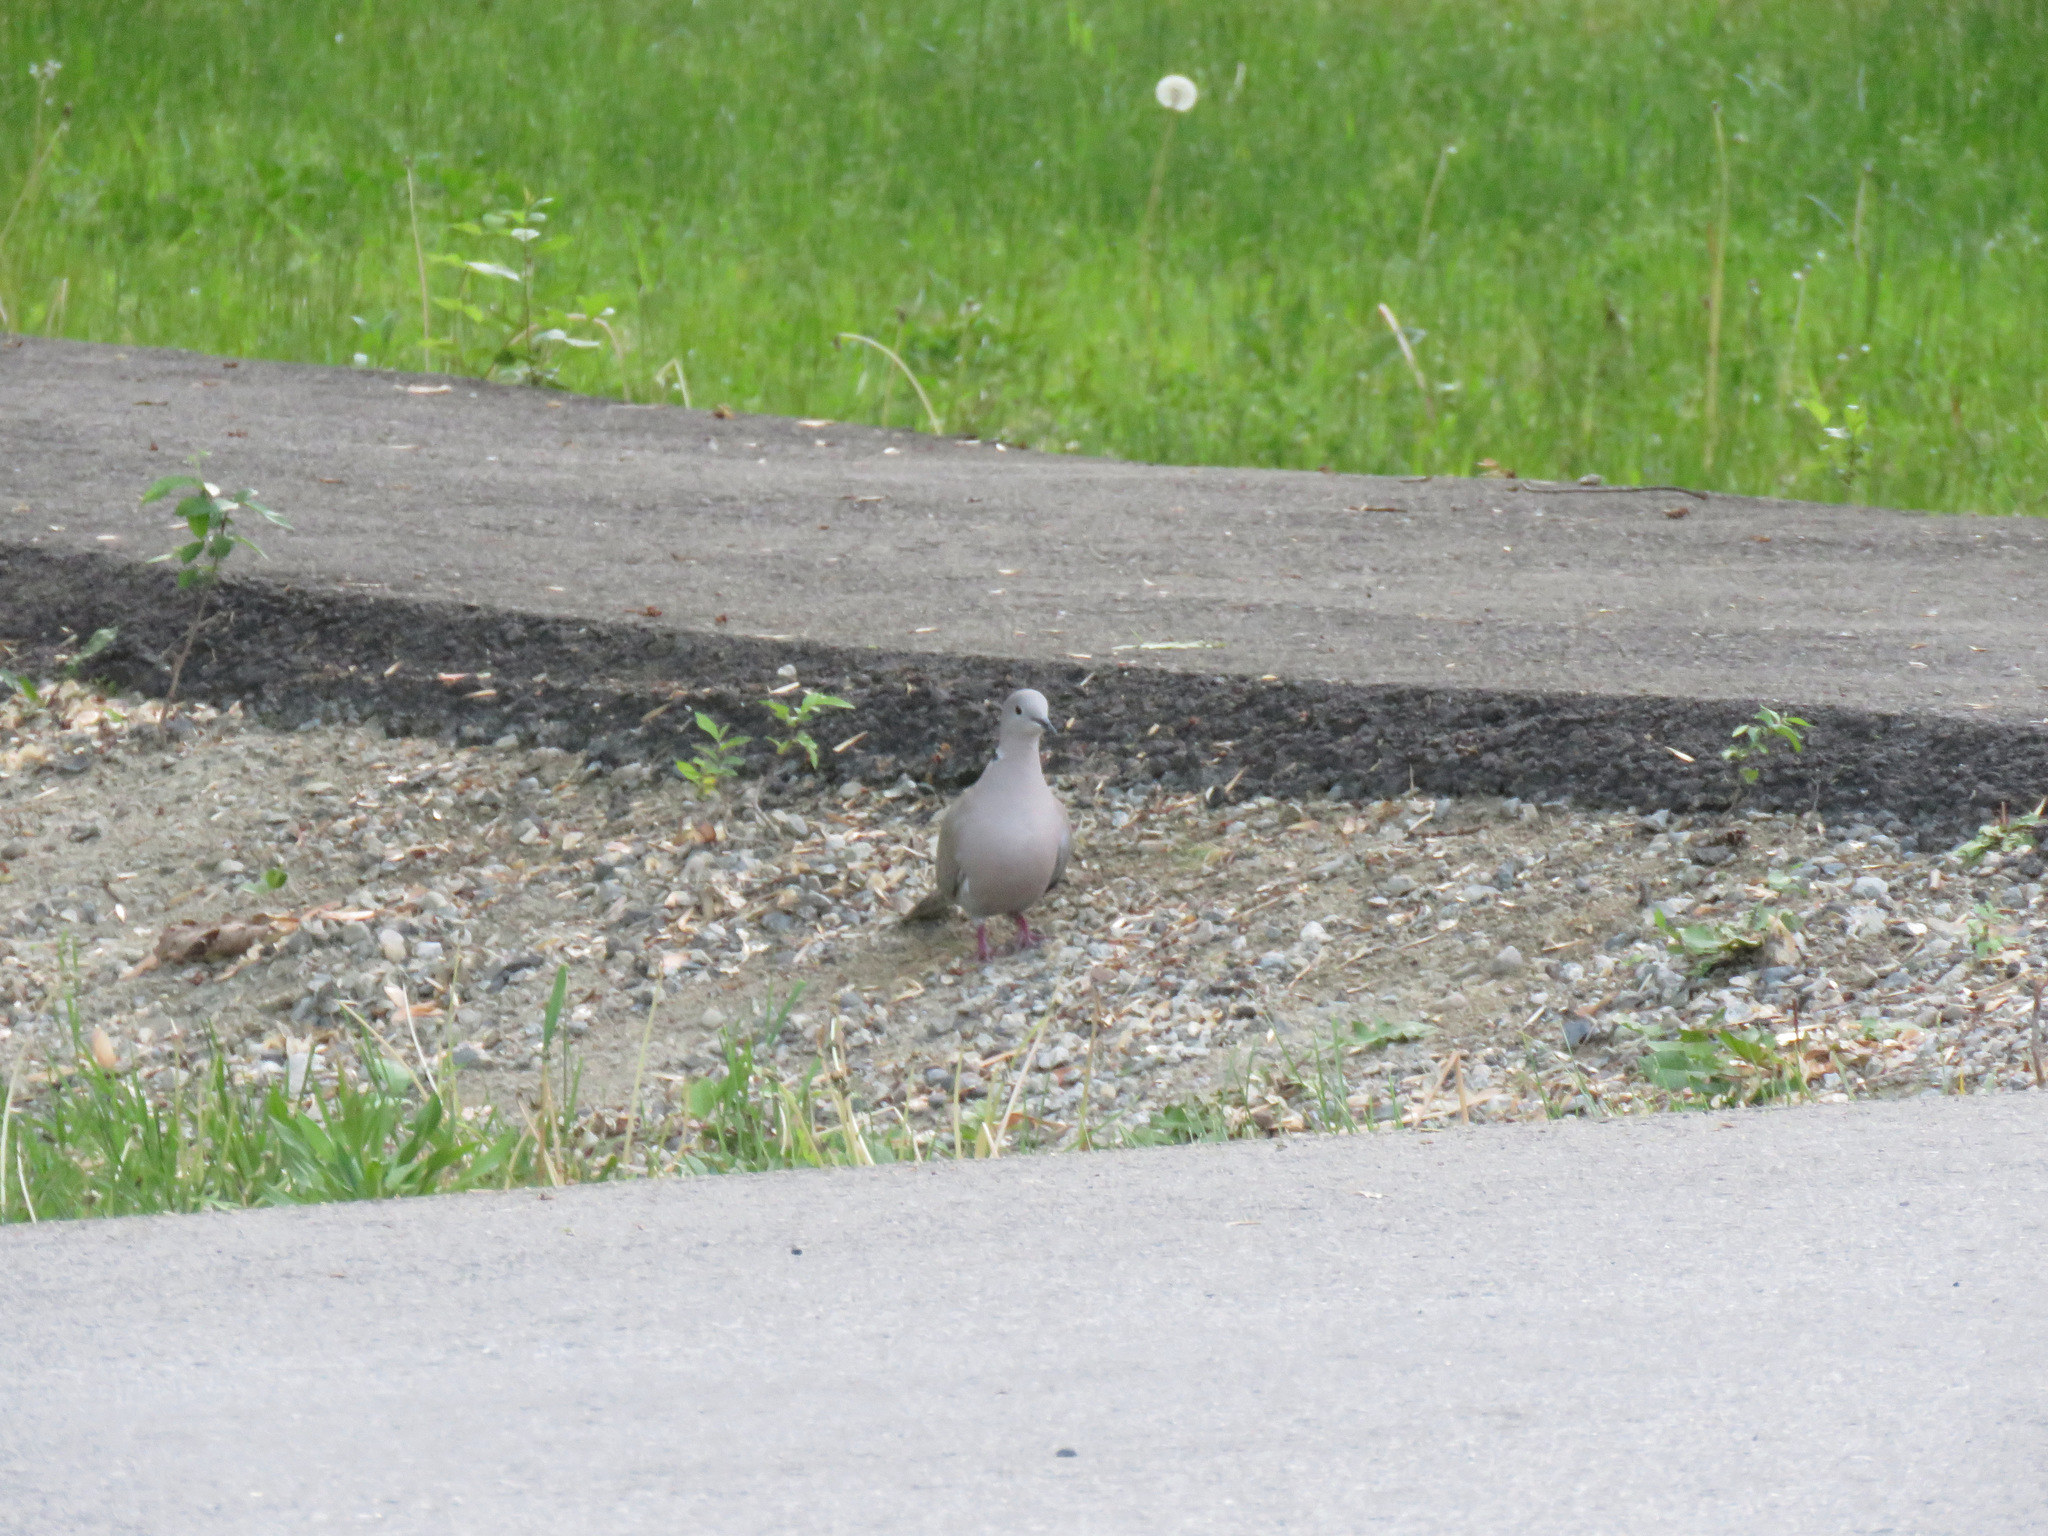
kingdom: Animalia
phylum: Chordata
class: Aves
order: Columbiformes
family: Columbidae
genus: Streptopelia
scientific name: Streptopelia decaocto
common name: Eurasian collared dove
